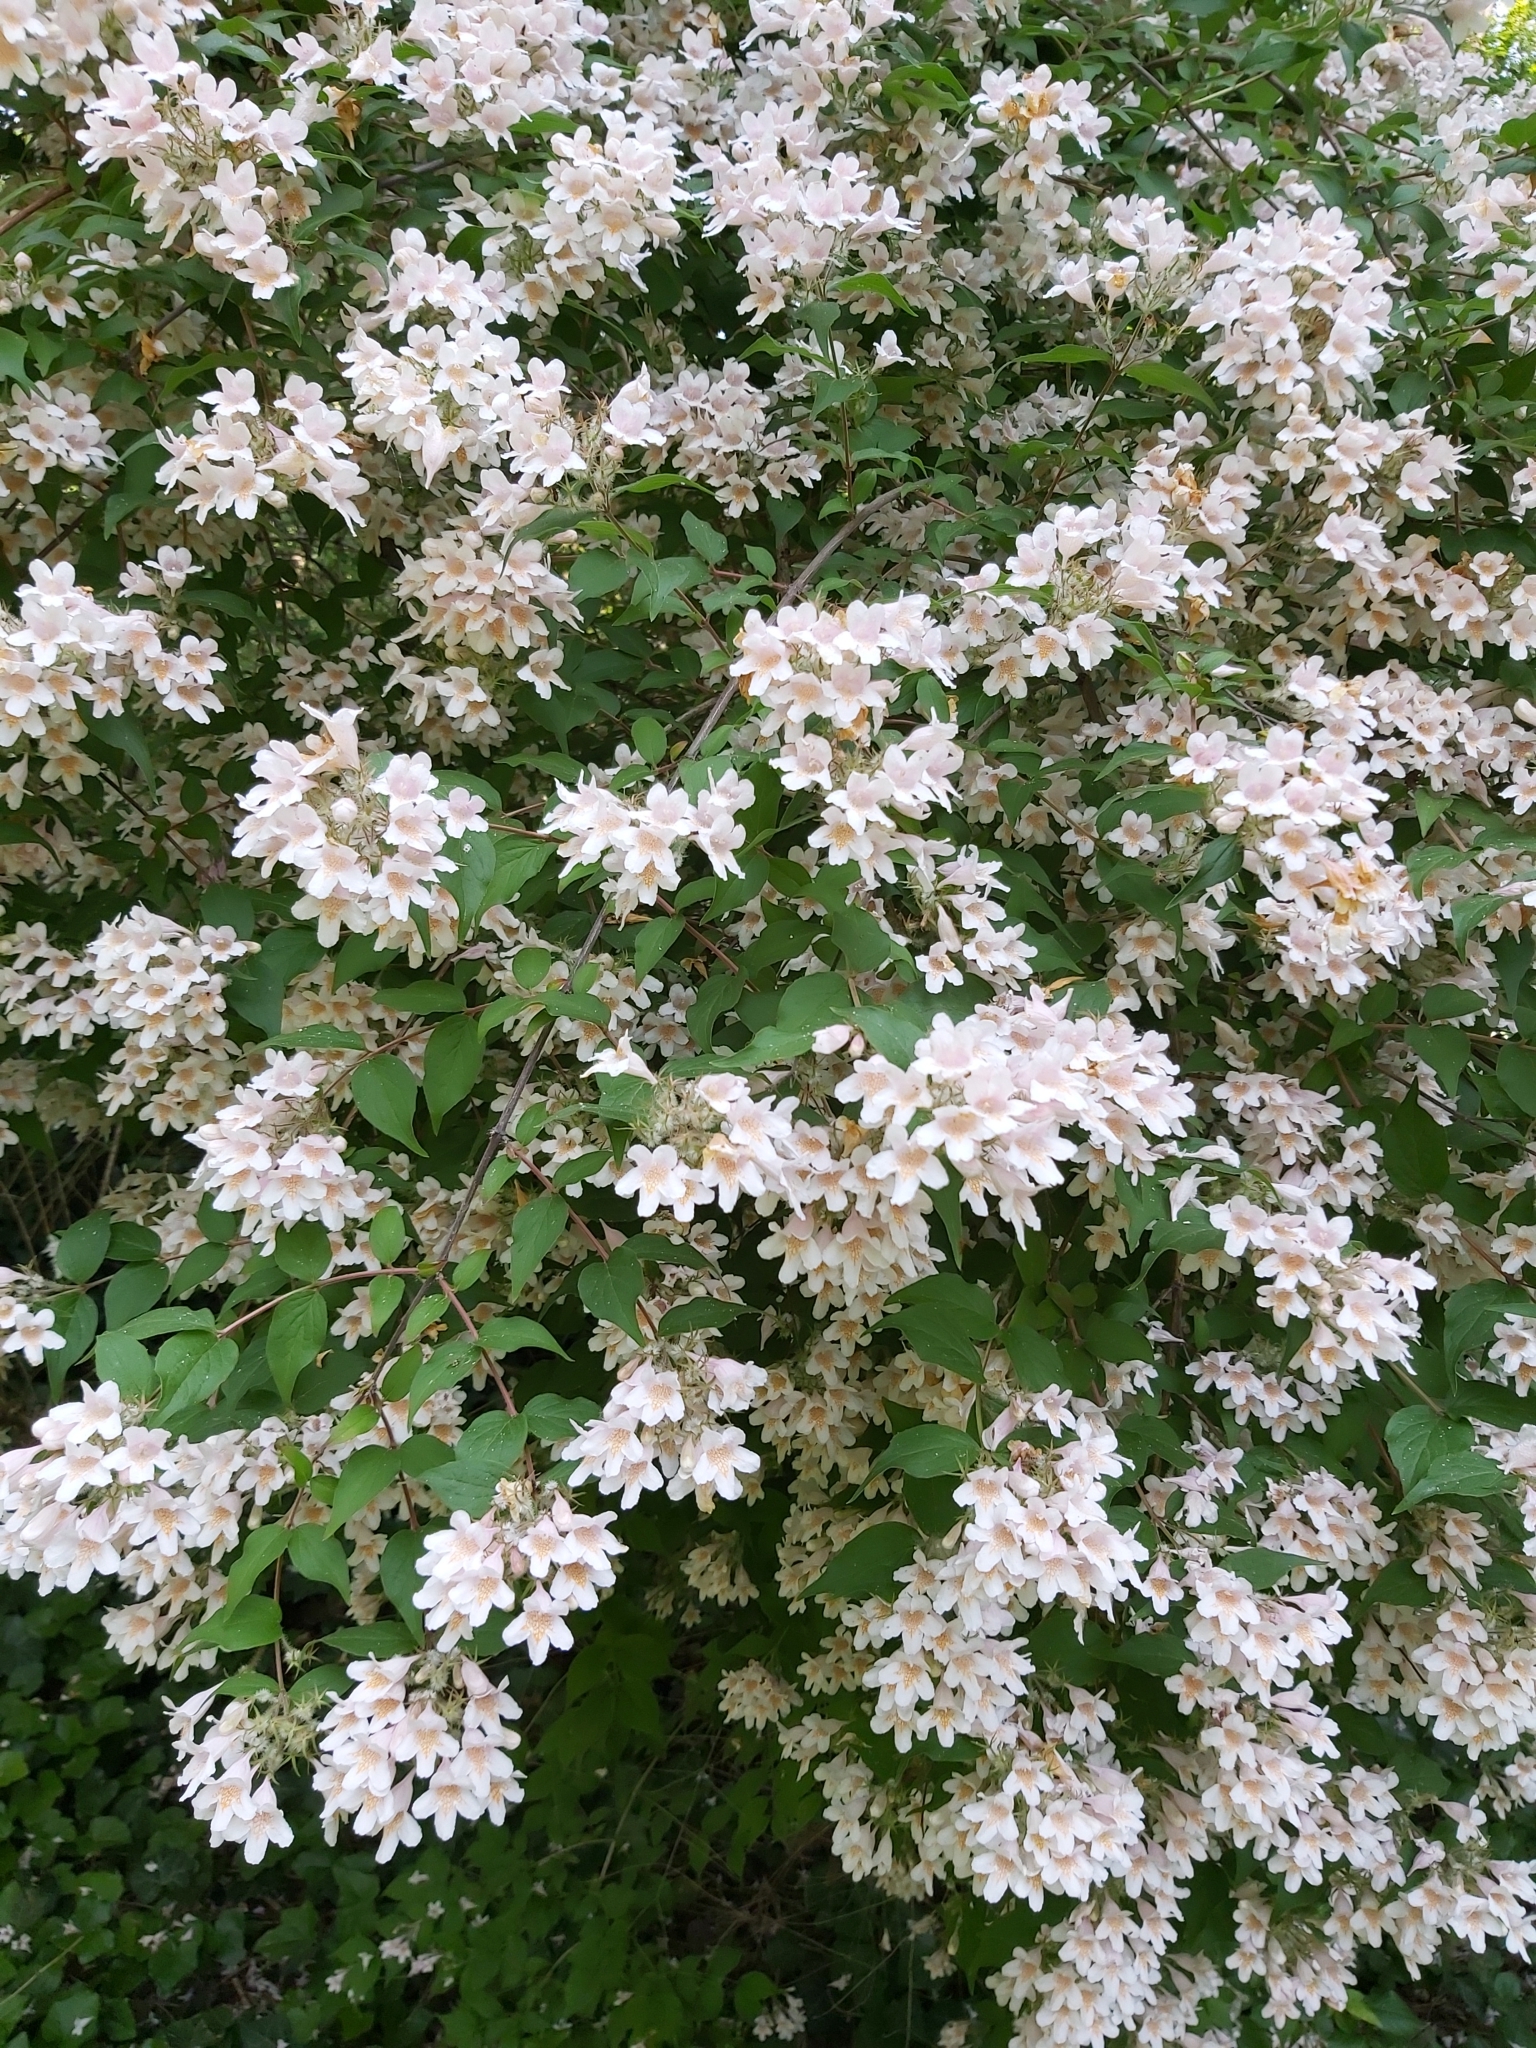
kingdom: Plantae
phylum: Tracheophyta
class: Magnoliopsida
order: Dipsacales
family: Caprifoliaceae
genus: Kolkwitzia
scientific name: Kolkwitzia amabilis
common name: Beautybush
